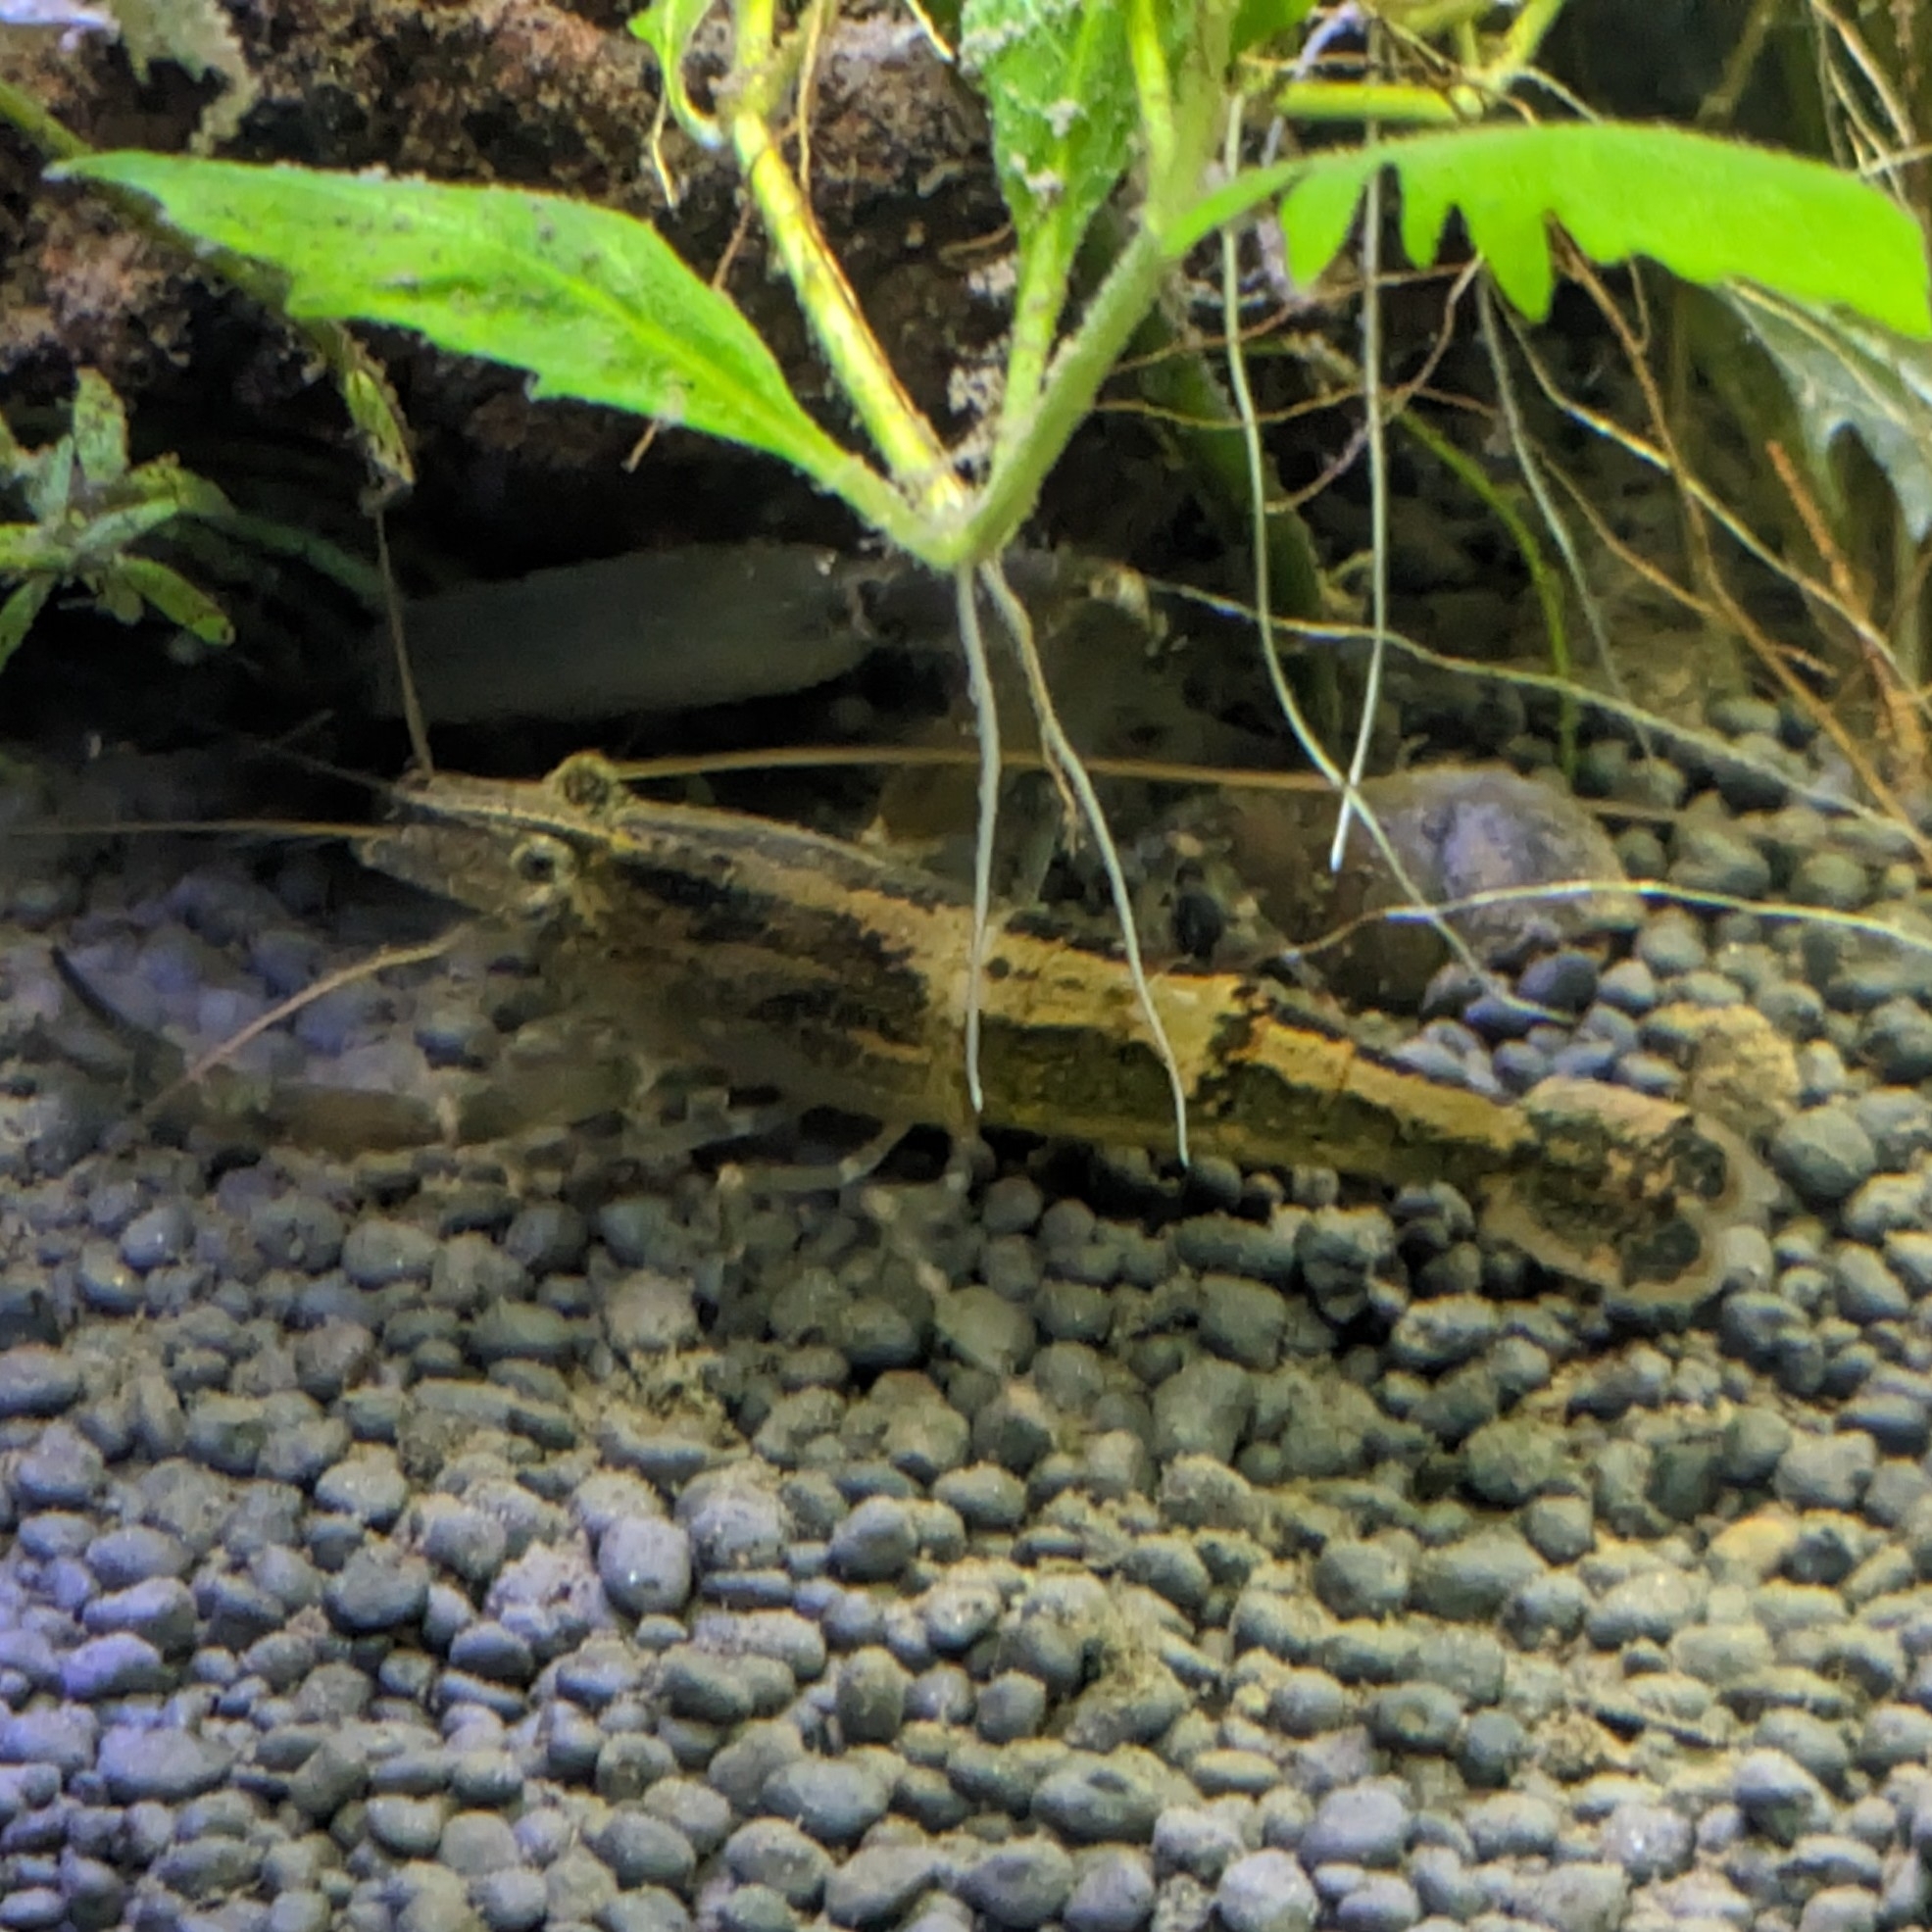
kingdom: Animalia
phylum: Arthropoda
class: Malacostraca
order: Decapoda
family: Palaemonidae
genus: Macrobrachium
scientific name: Macrobrachium scabriculum
